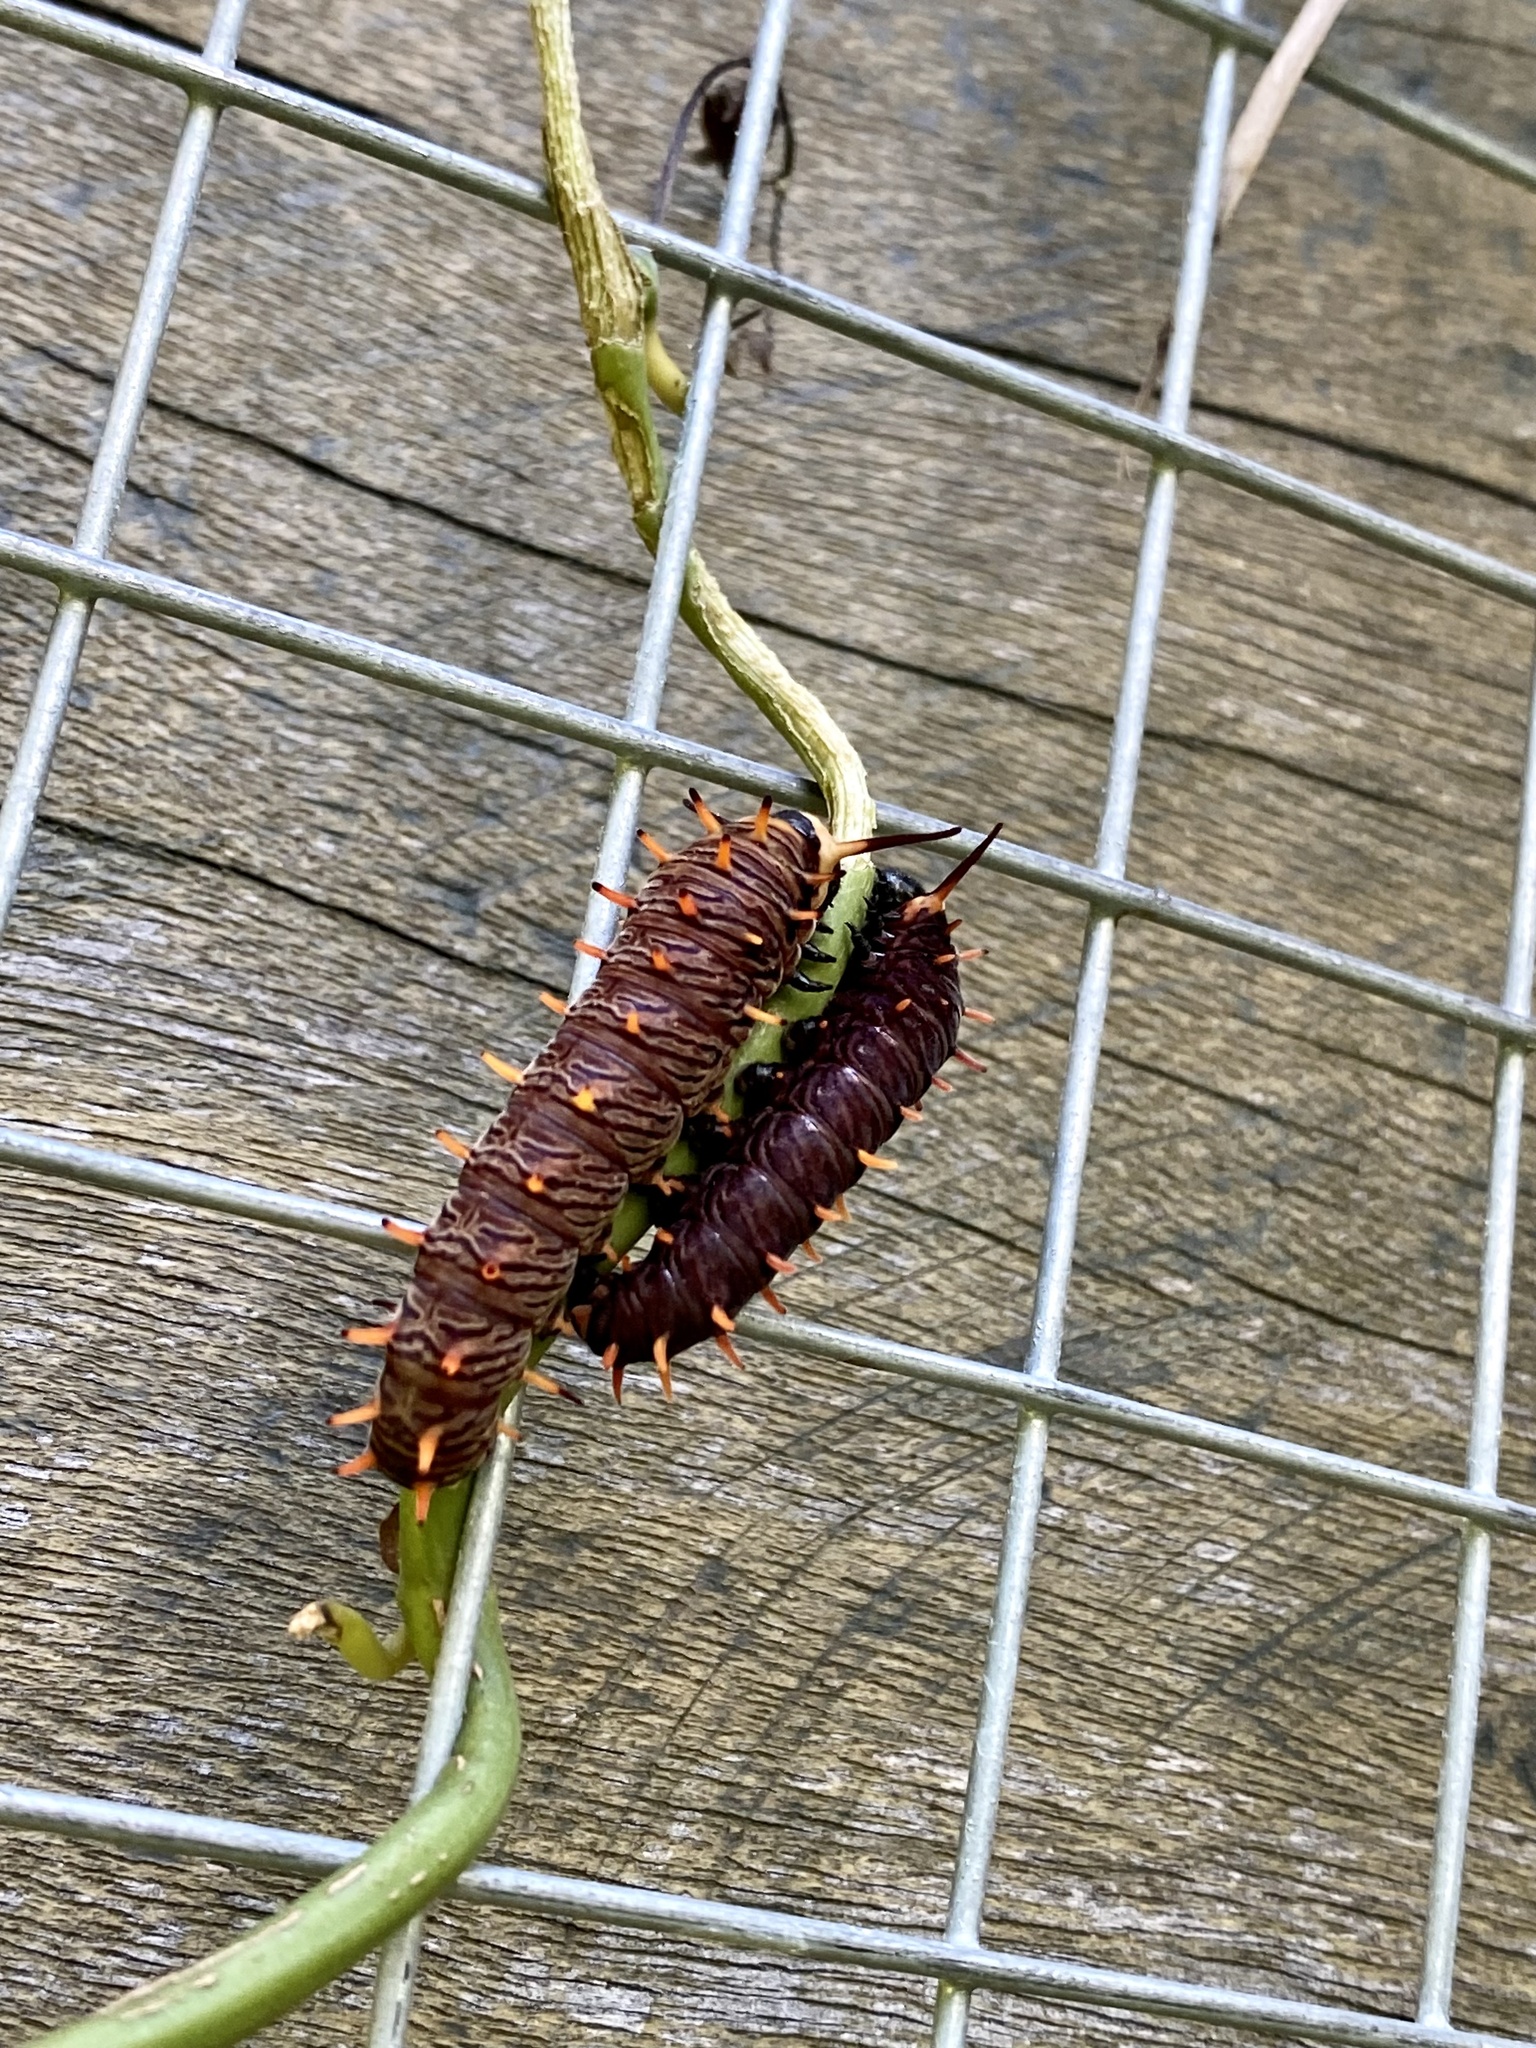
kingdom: Animalia
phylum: Arthropoda
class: Insecta
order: Lepidoptera
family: Papilionidae
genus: Battus
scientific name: Battus polydamas
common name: Polydamas swallowtail
